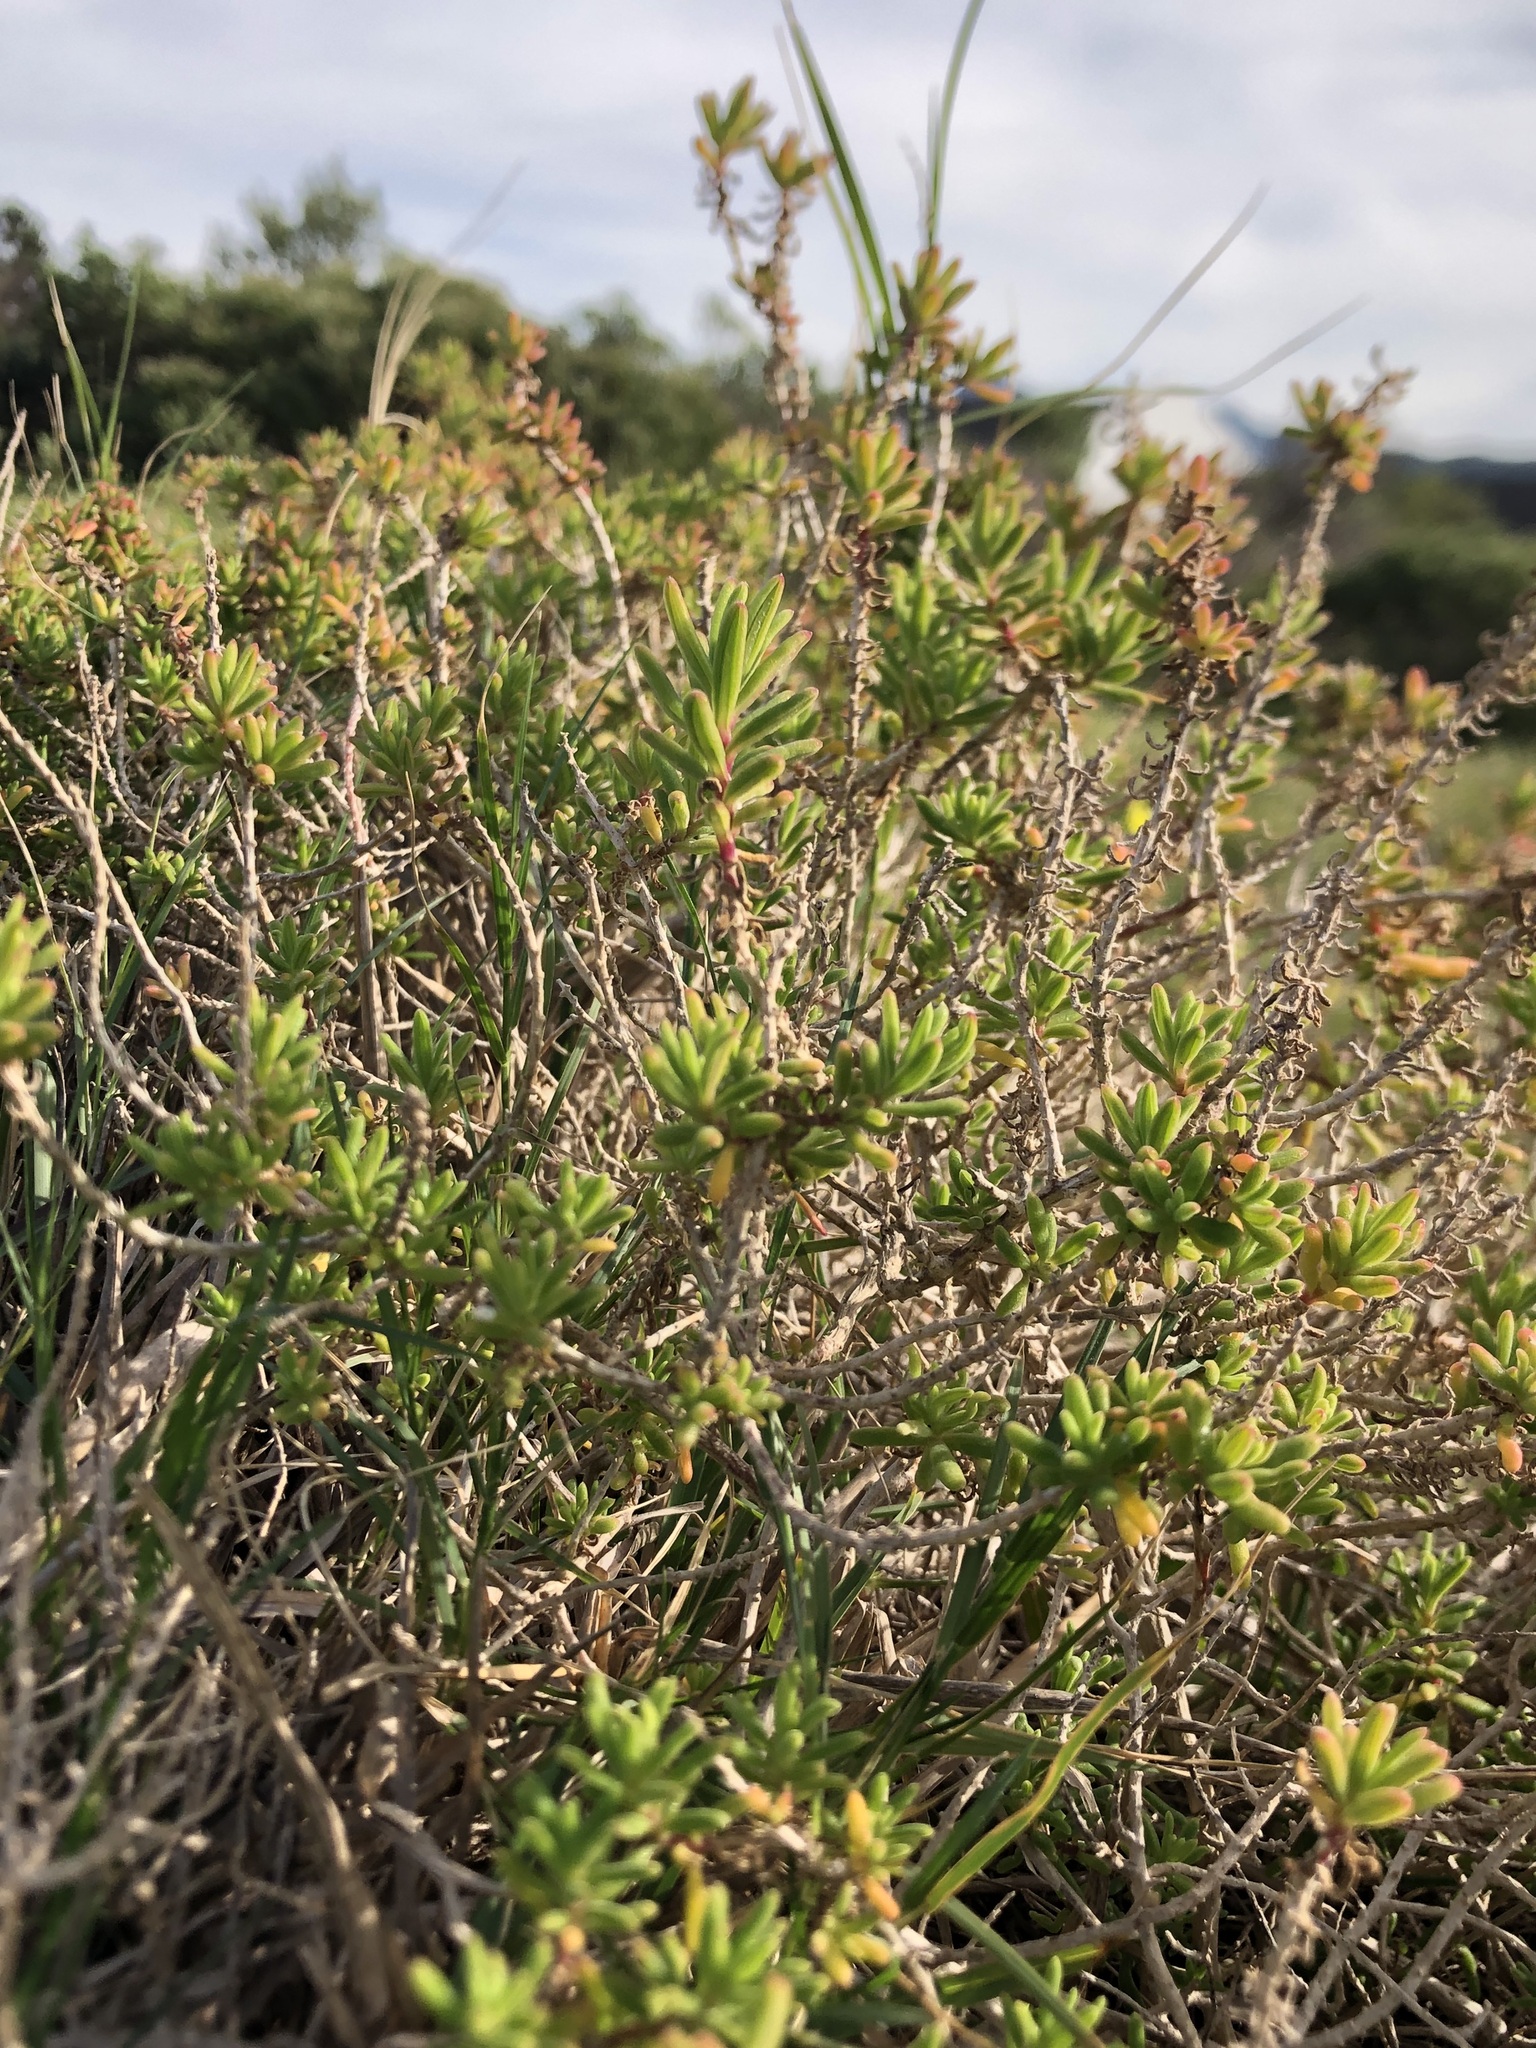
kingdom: Plantae
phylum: Tracheophyta
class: Magnoliopsida
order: Caryophyllales
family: Aizoaceae
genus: Tetragonia
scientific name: Tetragonia fruticosa
